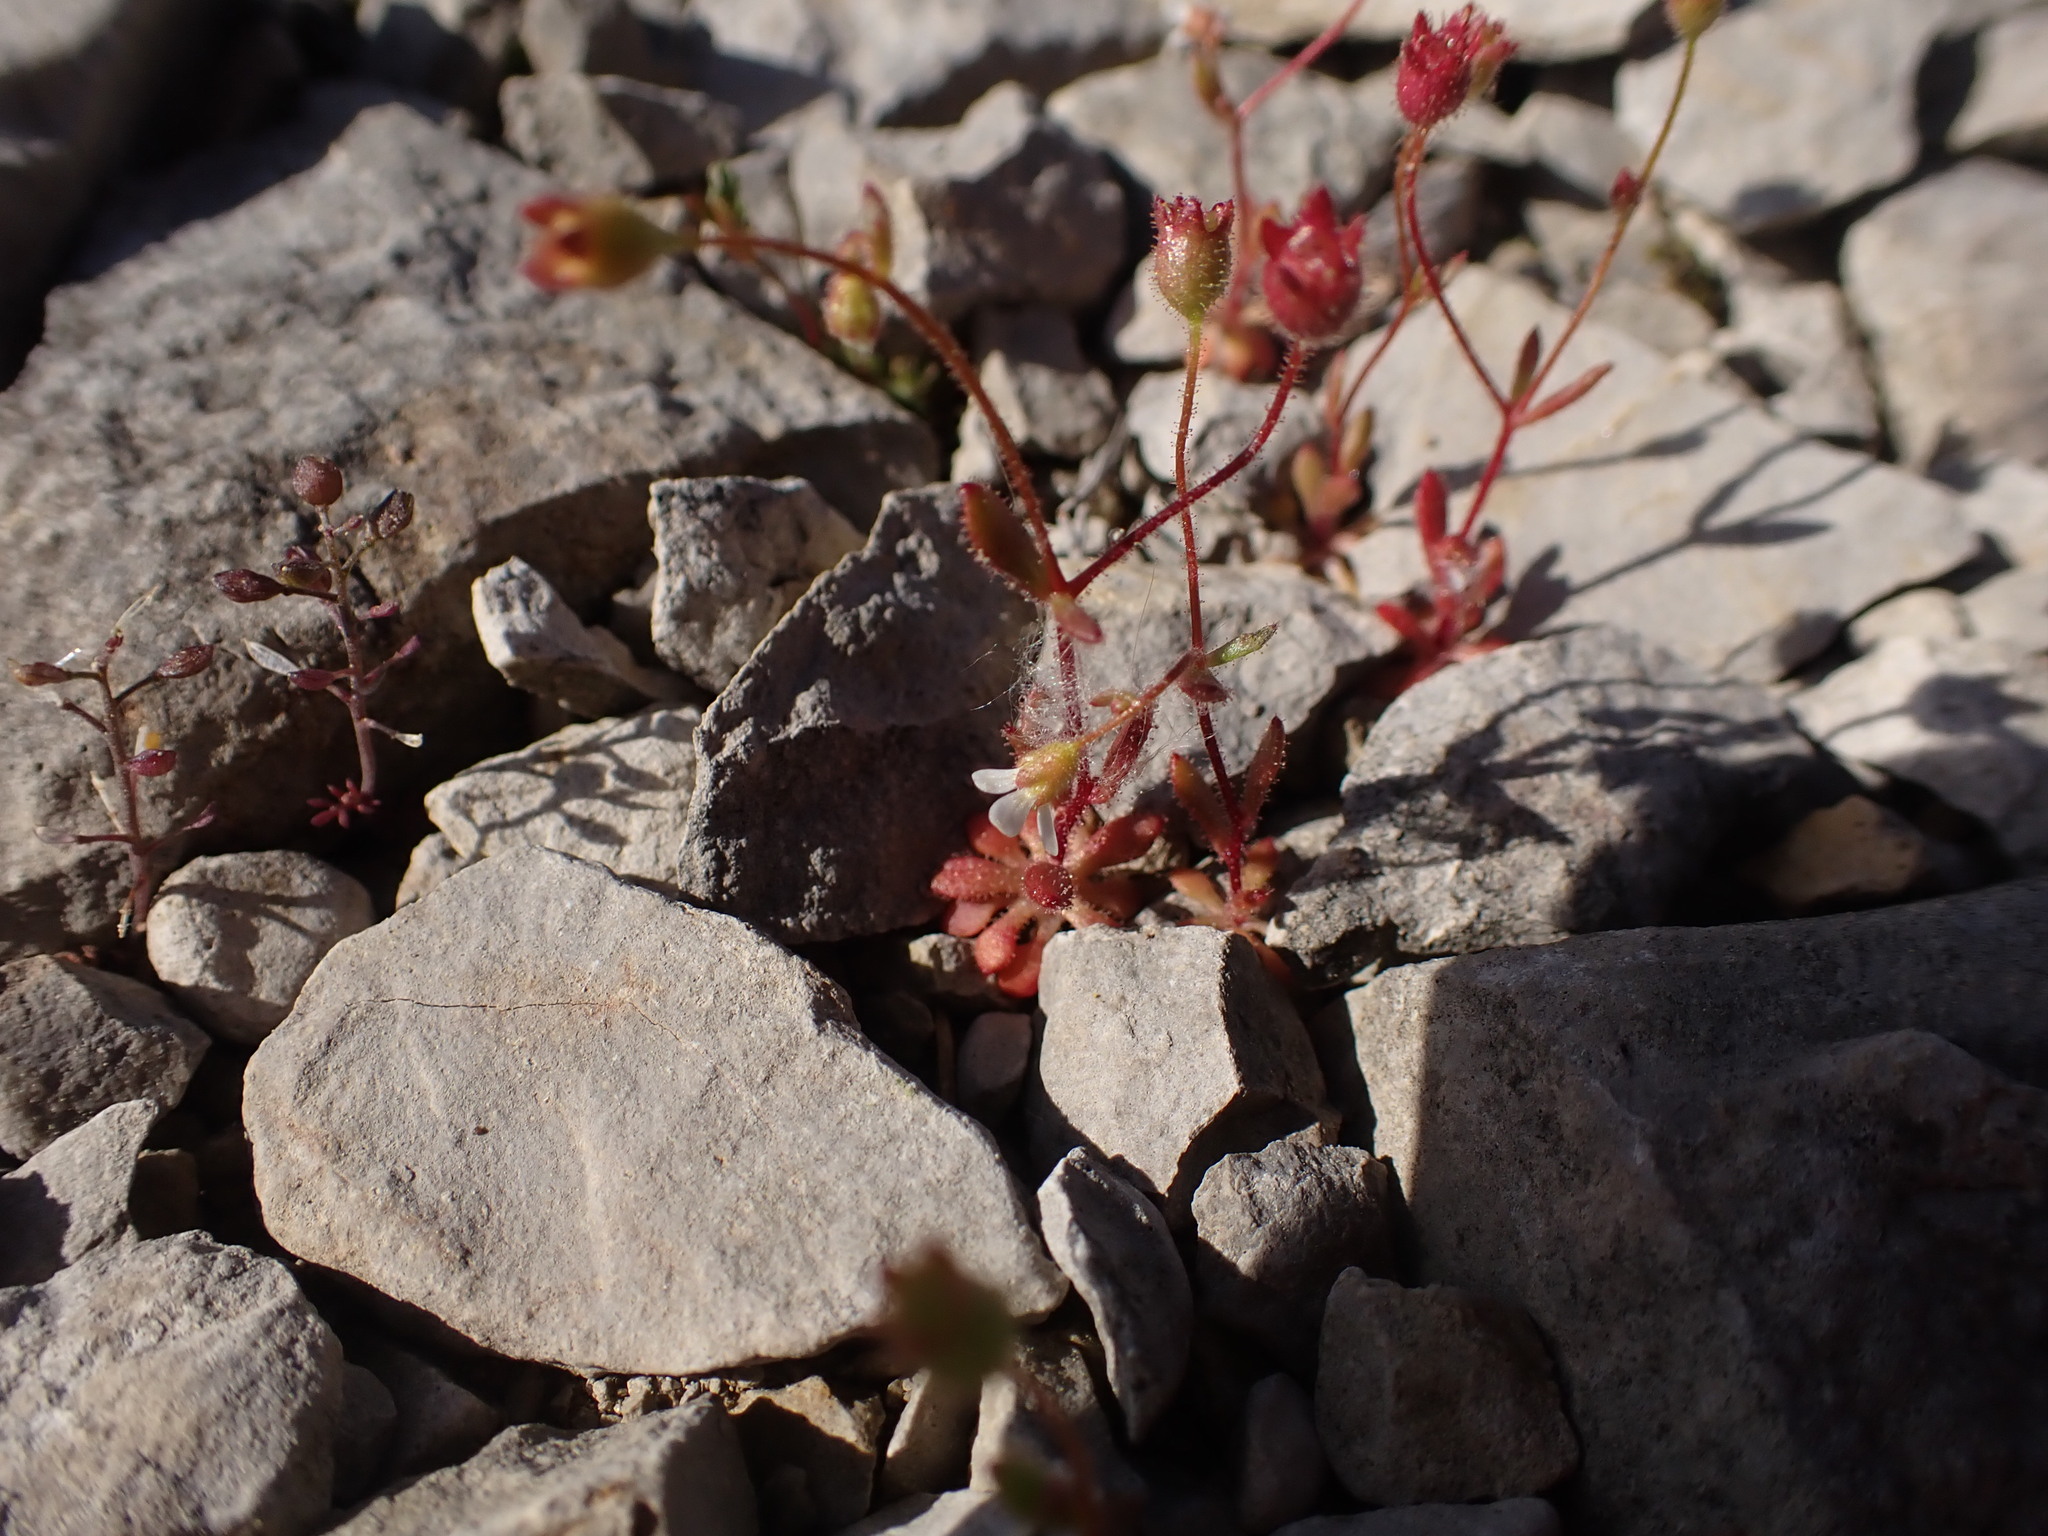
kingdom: Plantae
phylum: Tracheophyta
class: Magnoliopsida
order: Saxifragales
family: Saxifragaceae
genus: Saxifraga
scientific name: Saxifraga tridactylites
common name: Rue-leaved saxifrage
